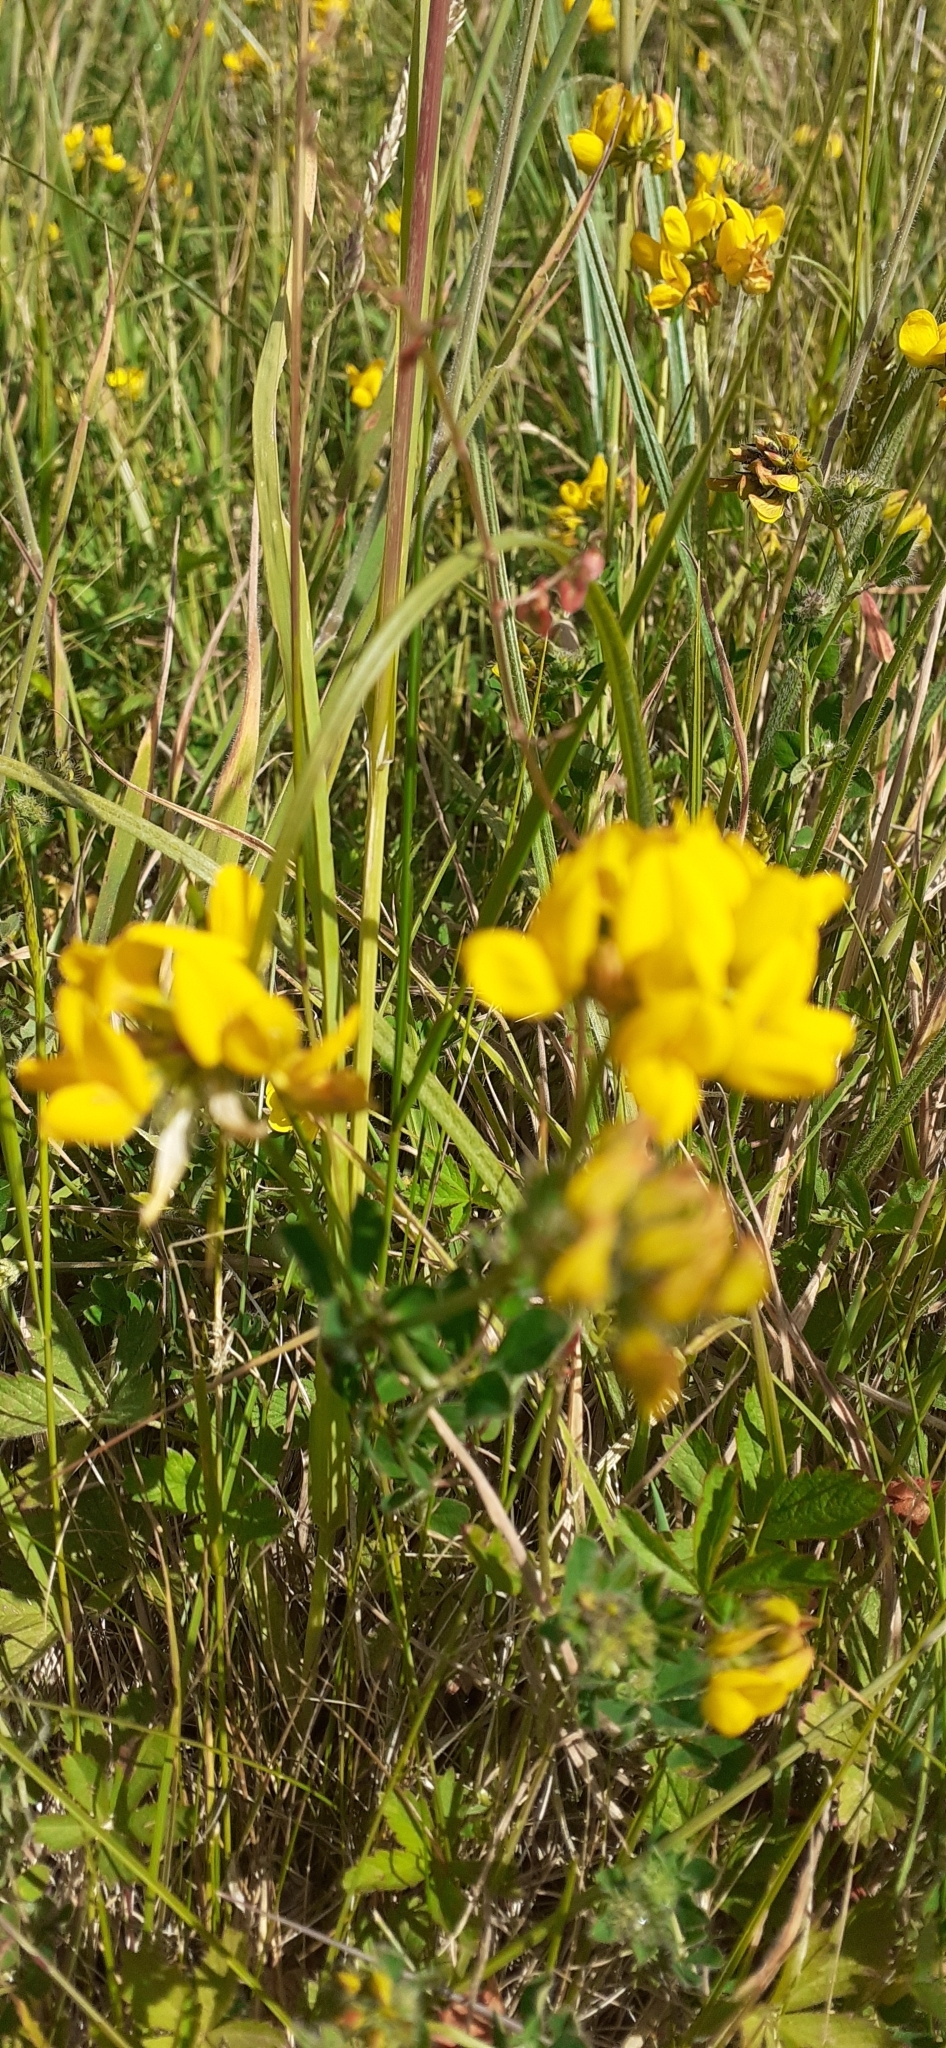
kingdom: Plantae
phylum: Tracheophyta
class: Magnoliopsida
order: Fabales
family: Fabaceae
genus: Lotus
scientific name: Lotus corniculatus
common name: Common bird's-foot-trefoil
